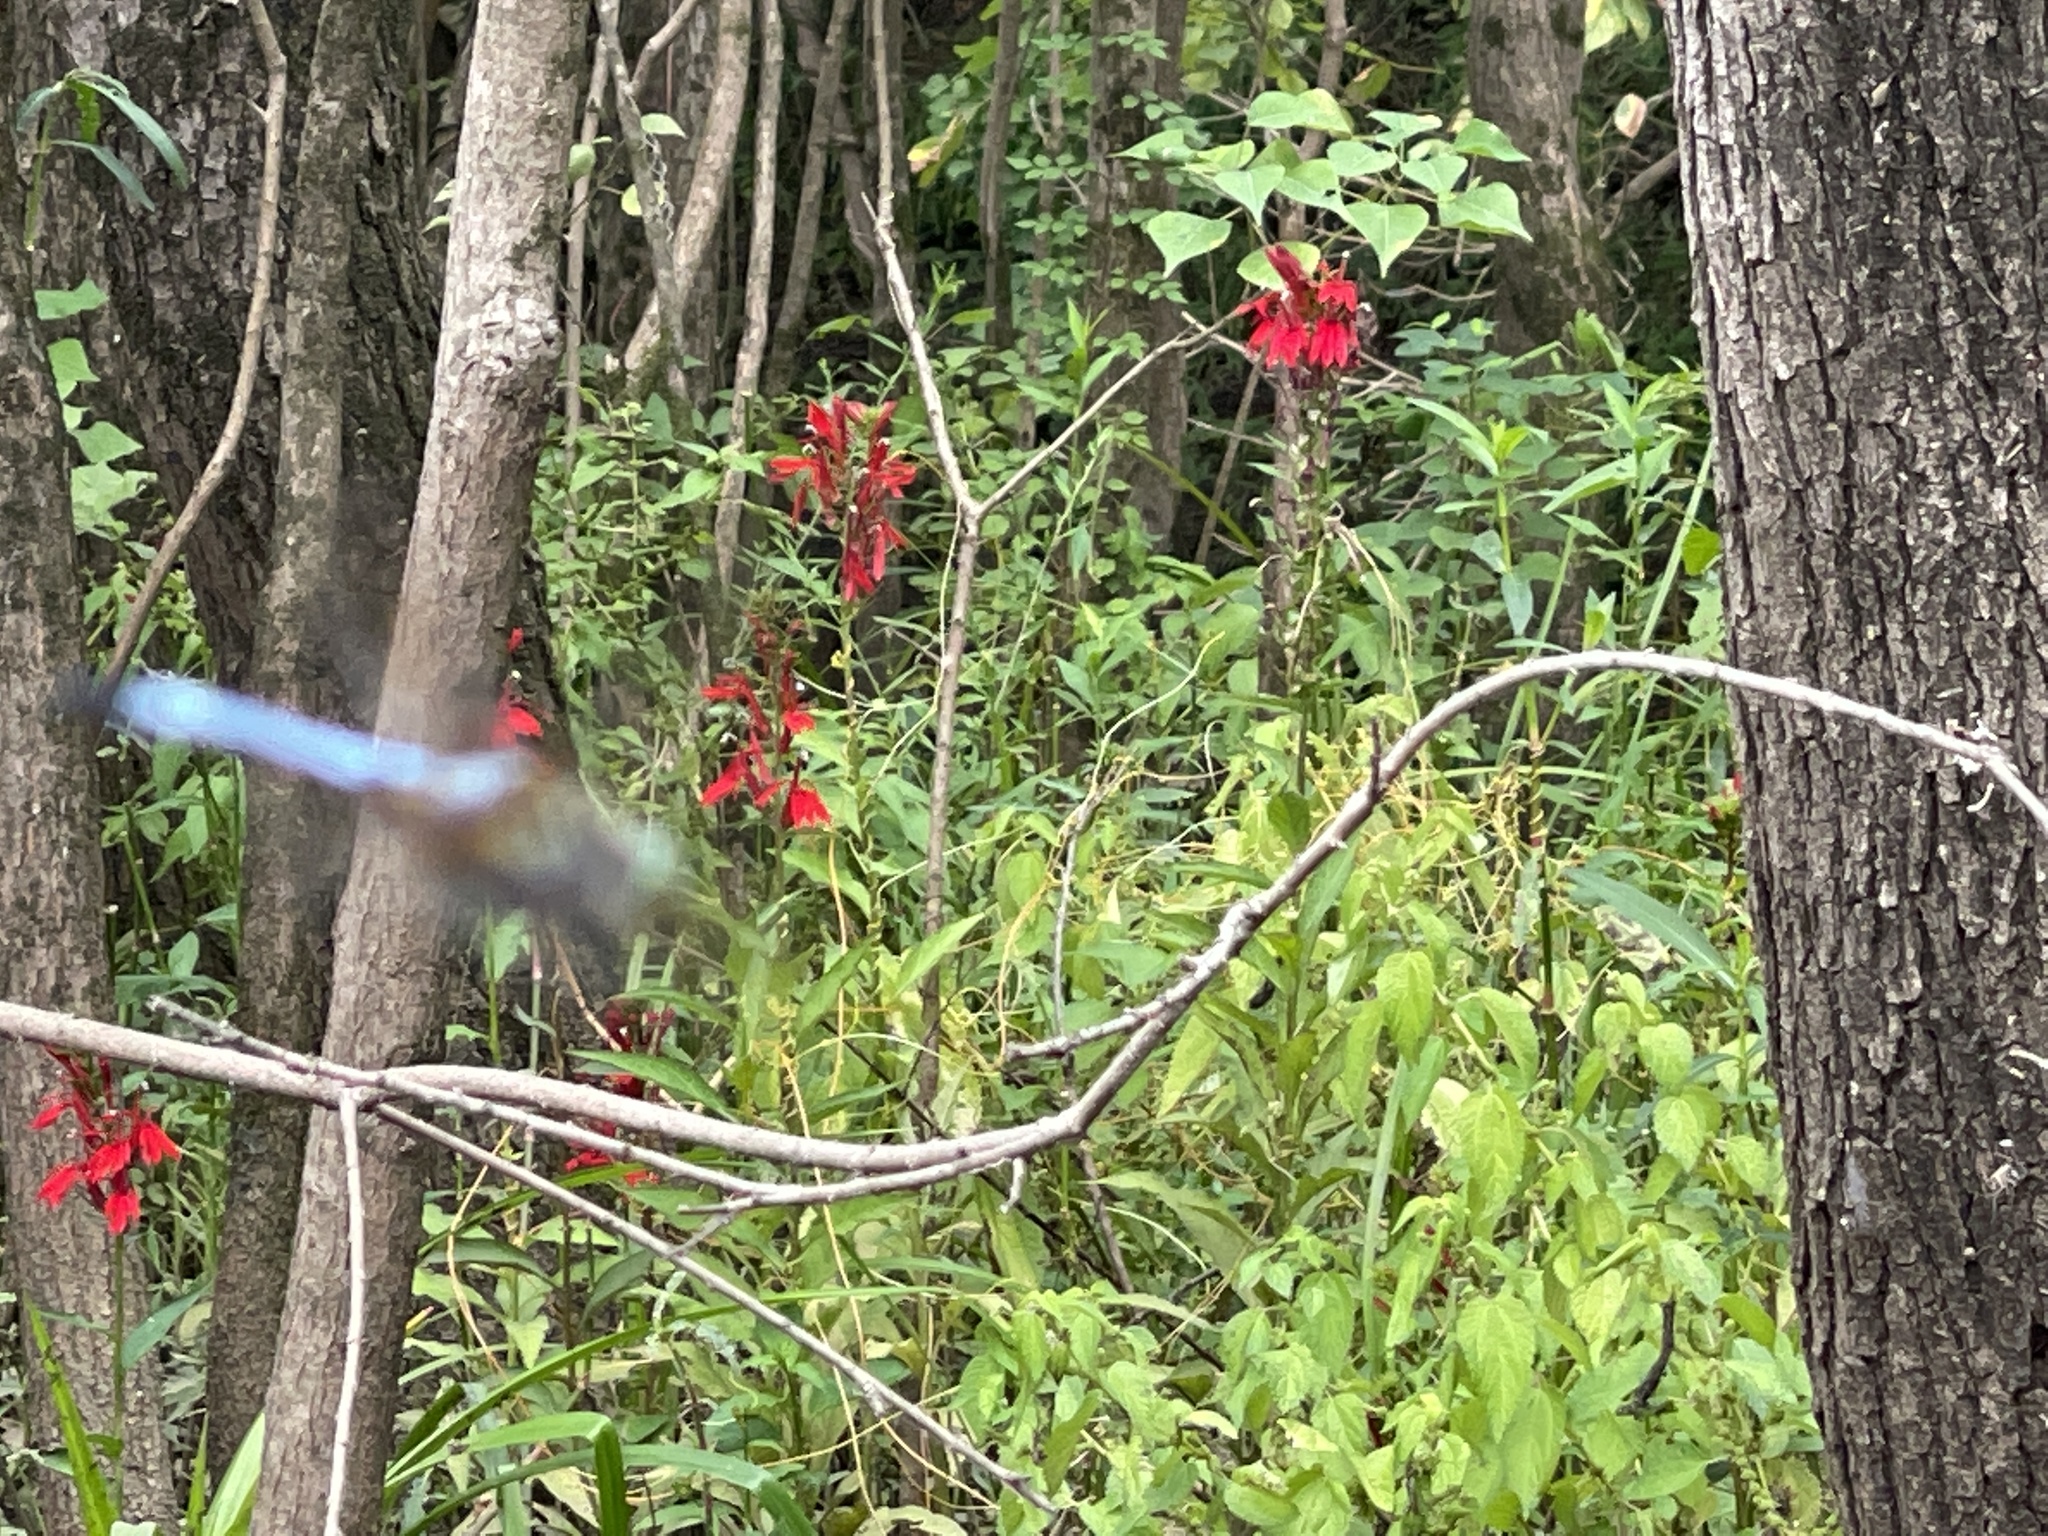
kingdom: Plantae
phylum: Tracheophyta
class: Magnoliopsida
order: Asterales
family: Campanulaceae
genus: Lobelia
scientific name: Lobelia cardinalis
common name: Cardinal flower
